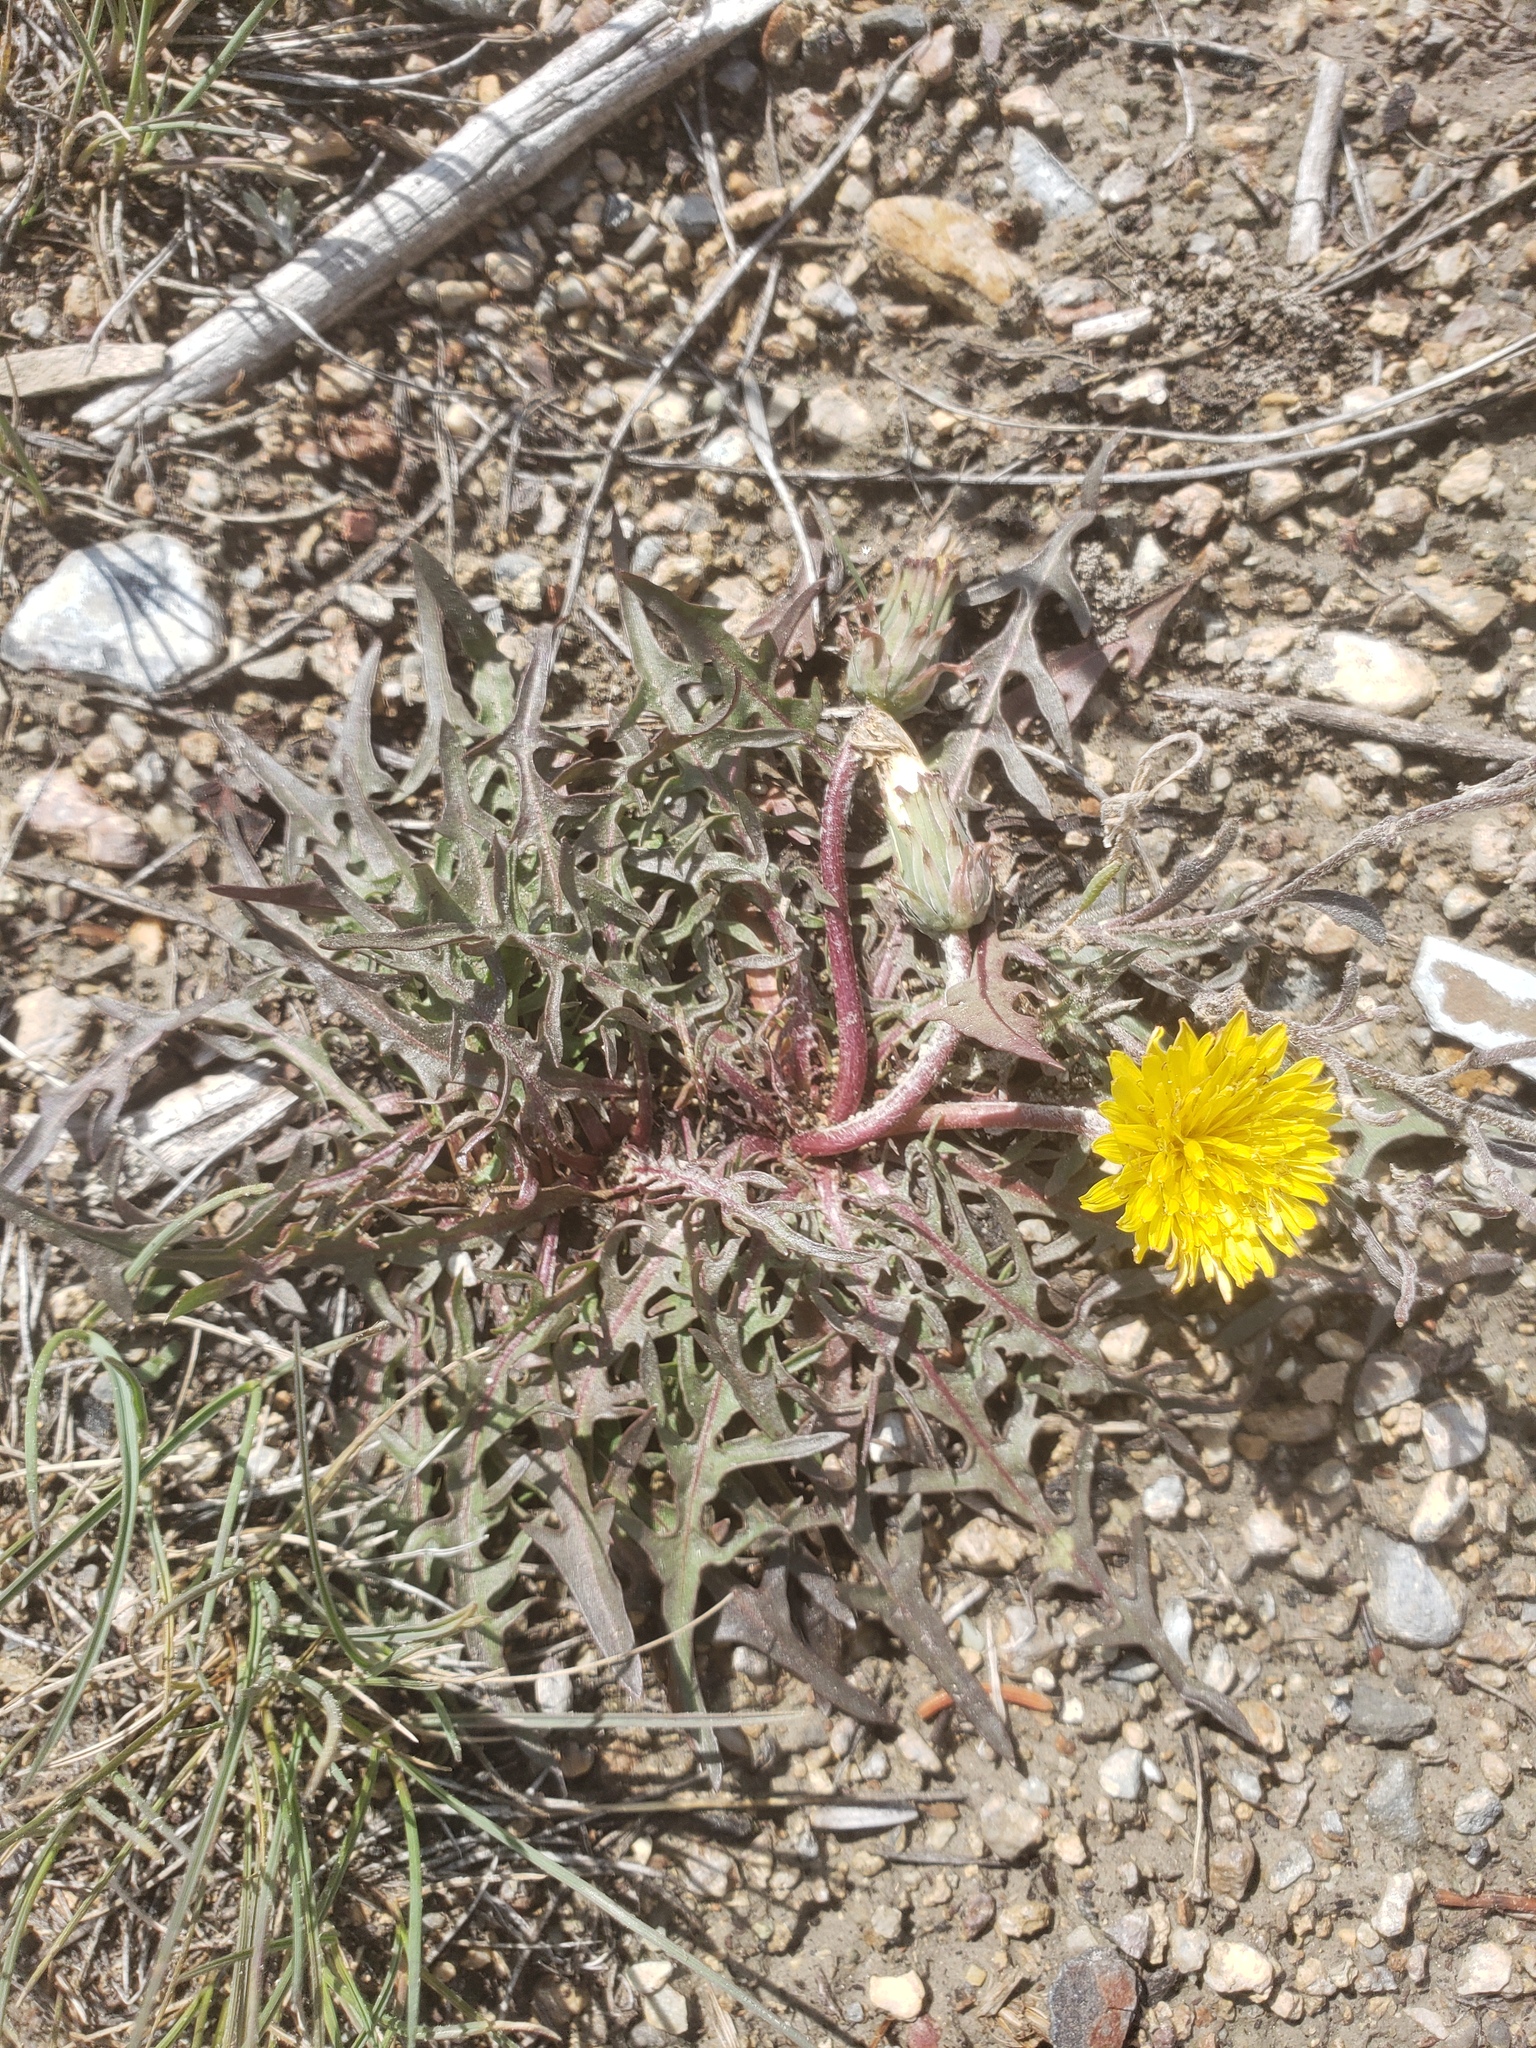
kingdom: Plantae
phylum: Tracheophyta
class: Magnoliopsida
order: Asterales
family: Asteraceae
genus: Taraxacum
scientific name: Taraxacum ceratophorum
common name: Horn-bearing dandelion
